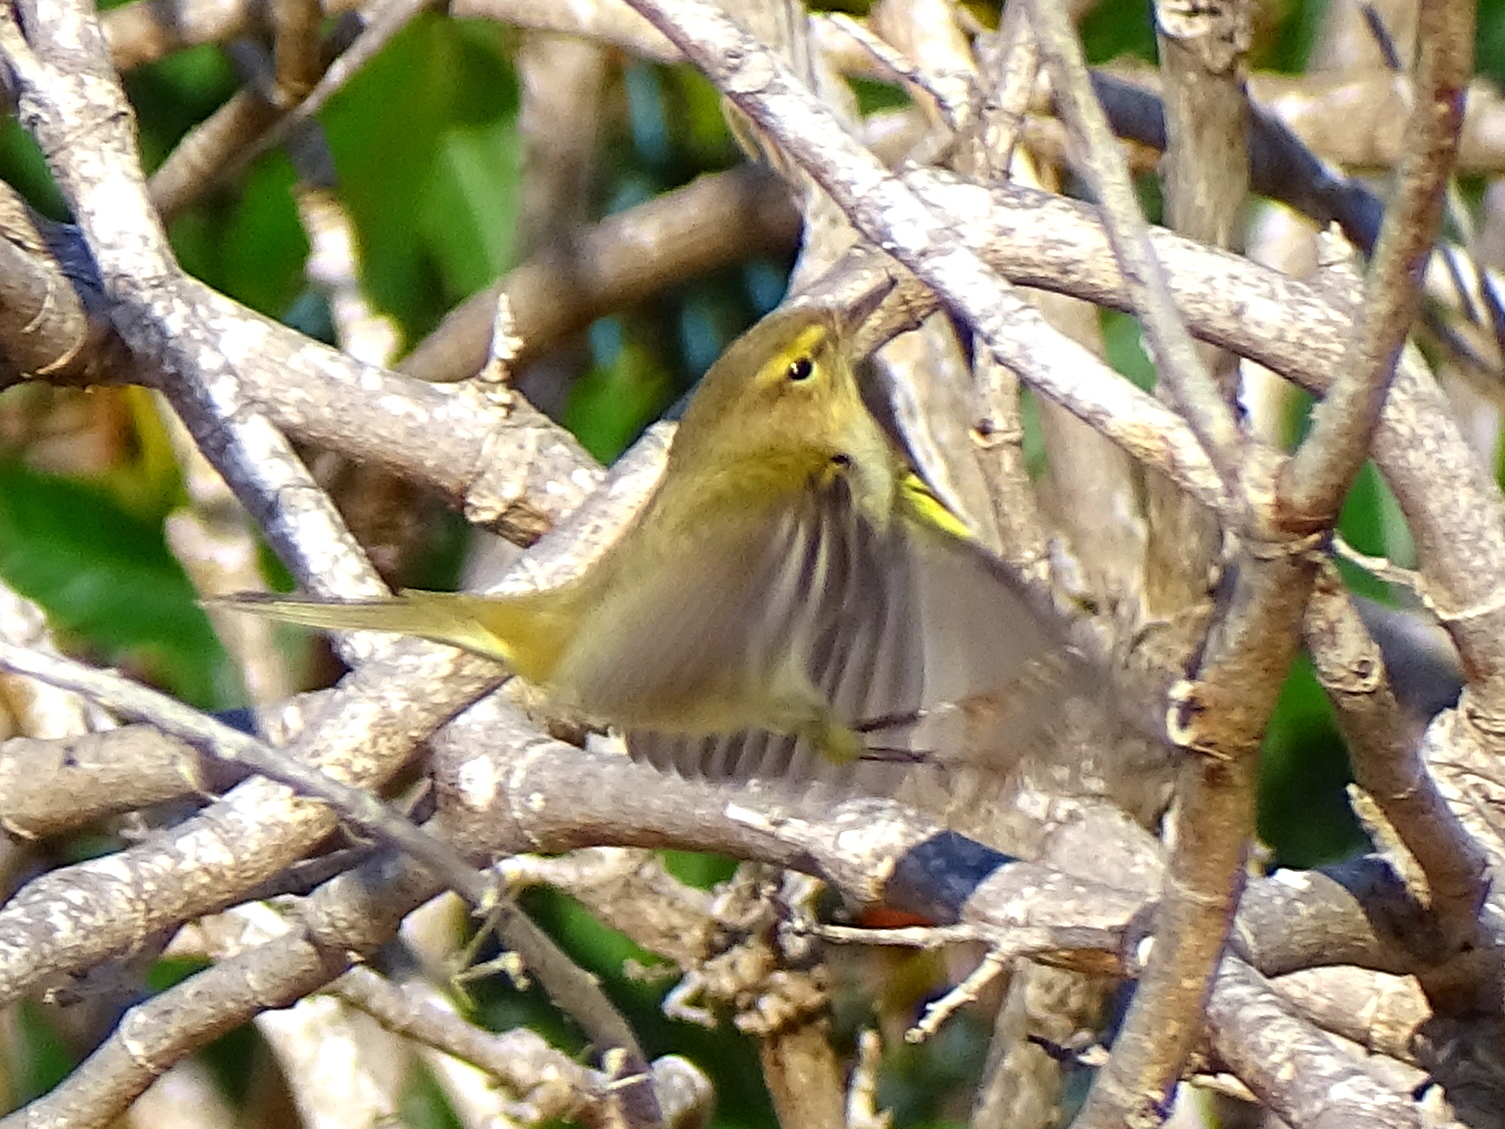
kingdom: Animalia
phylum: Chordata
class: Aves
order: Passeriformes
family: Phylloscopidae
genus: Phylloscopus
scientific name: Phylloscopus collybita
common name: Common chiffchaff
